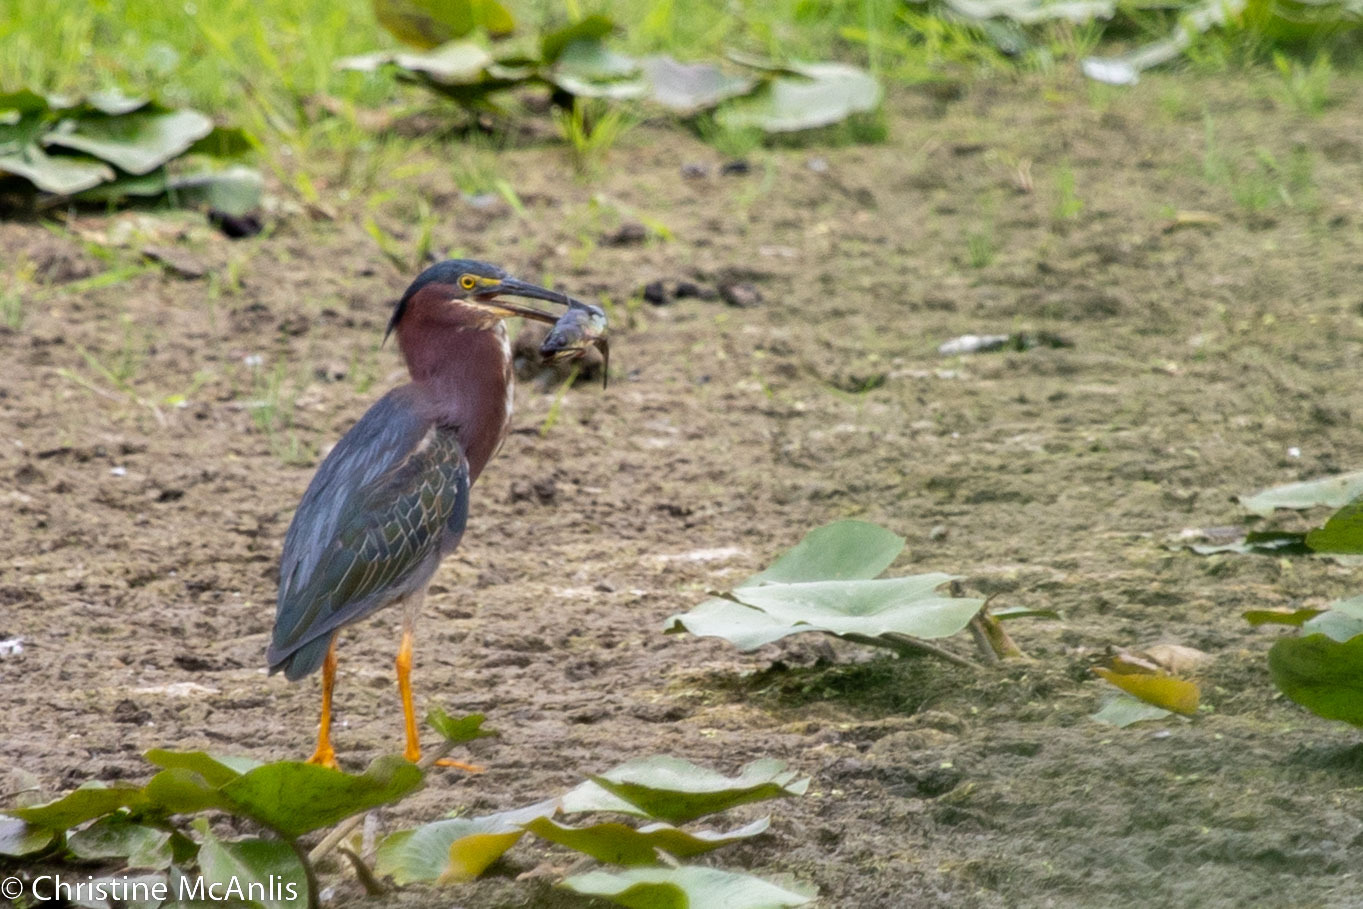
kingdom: Animalia
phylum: Chordata
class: Aves
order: Pelecaniformes
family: Ardeidae
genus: Butorides
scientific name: Butorides virescens
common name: Green heron
